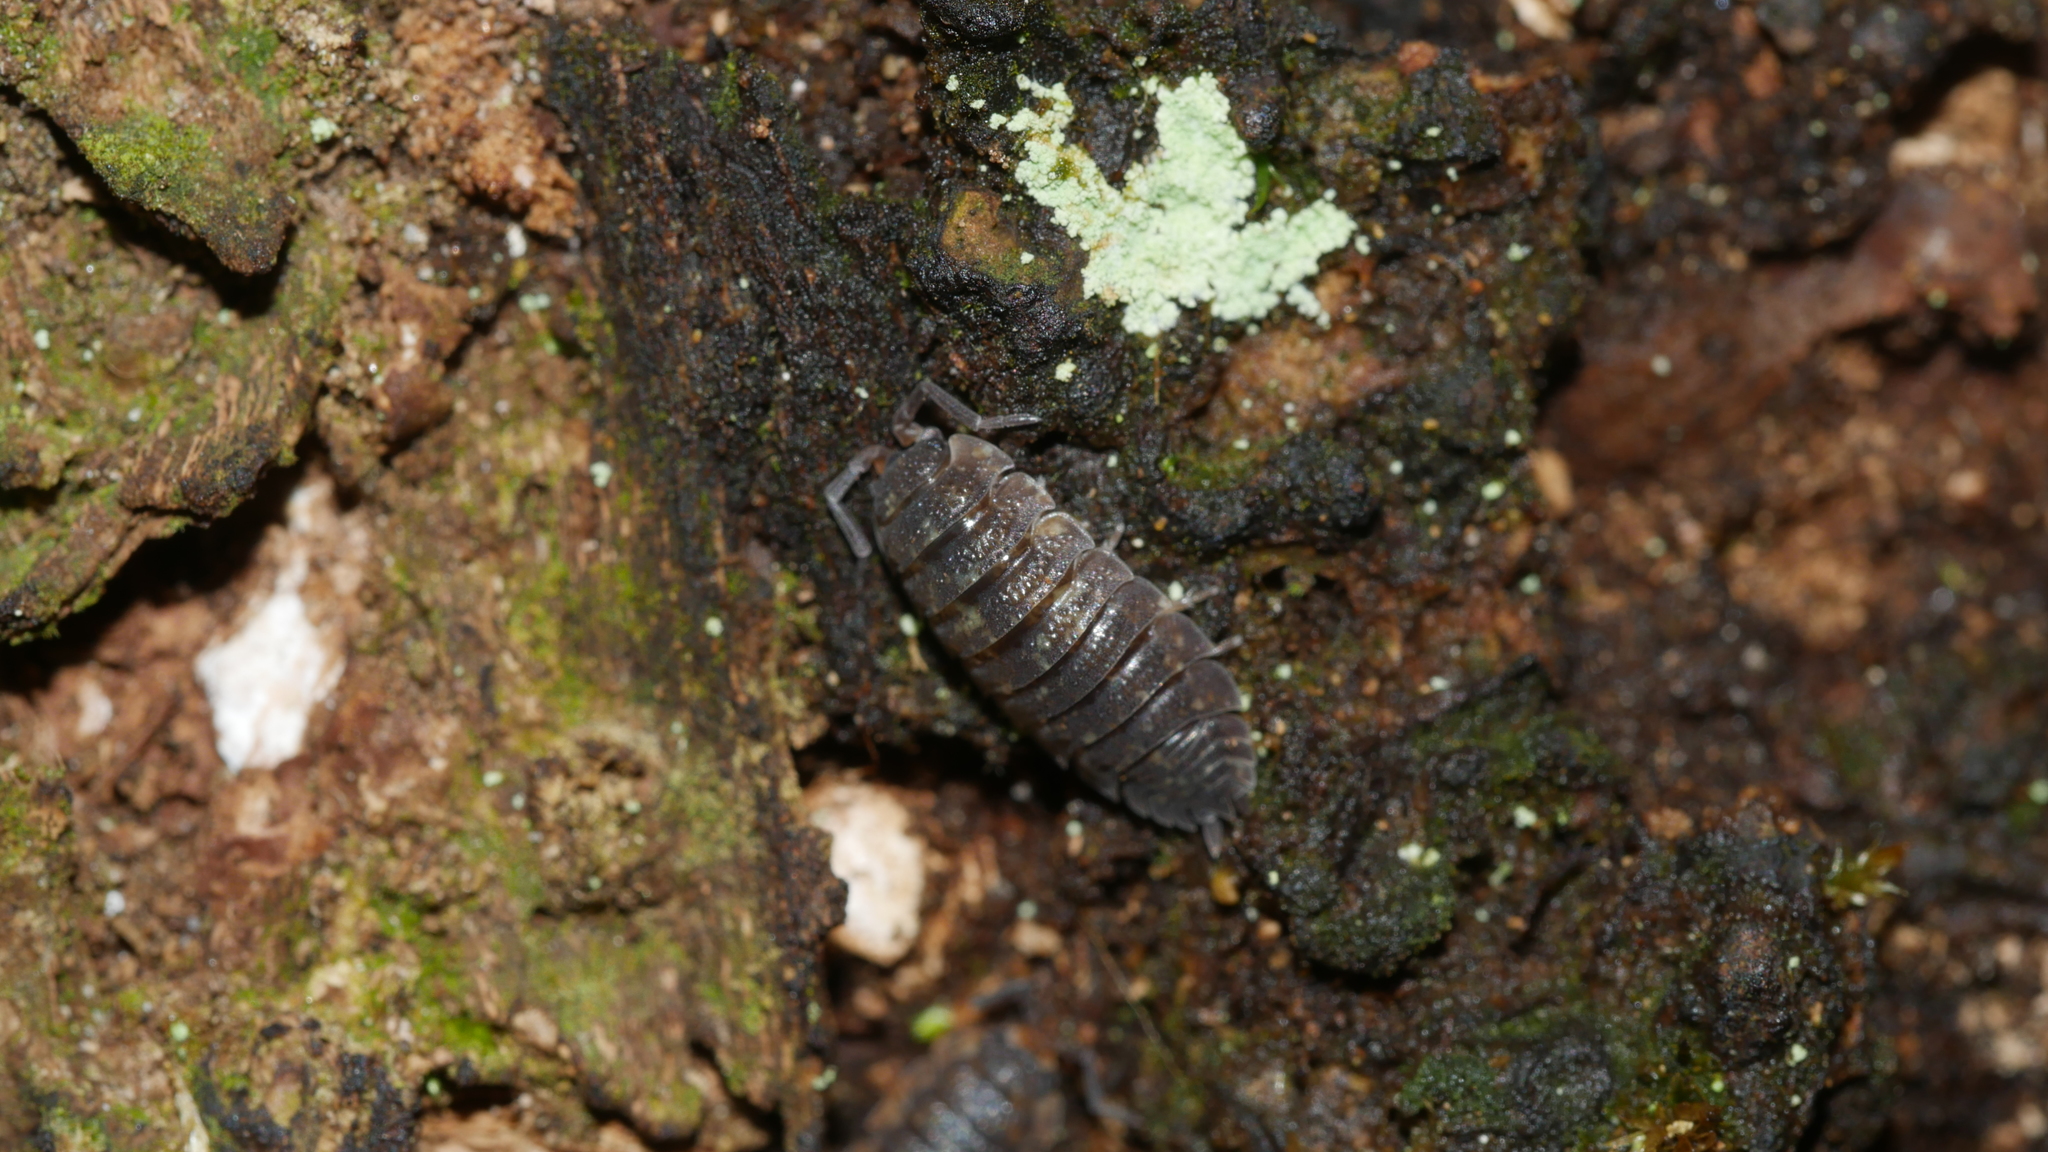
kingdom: Animalia
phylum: Arthropoda
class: Malacostraca
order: Isopoda
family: Porcellionidae
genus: Porcellio
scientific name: Porcellio scaber
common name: Common rough woodlouse
